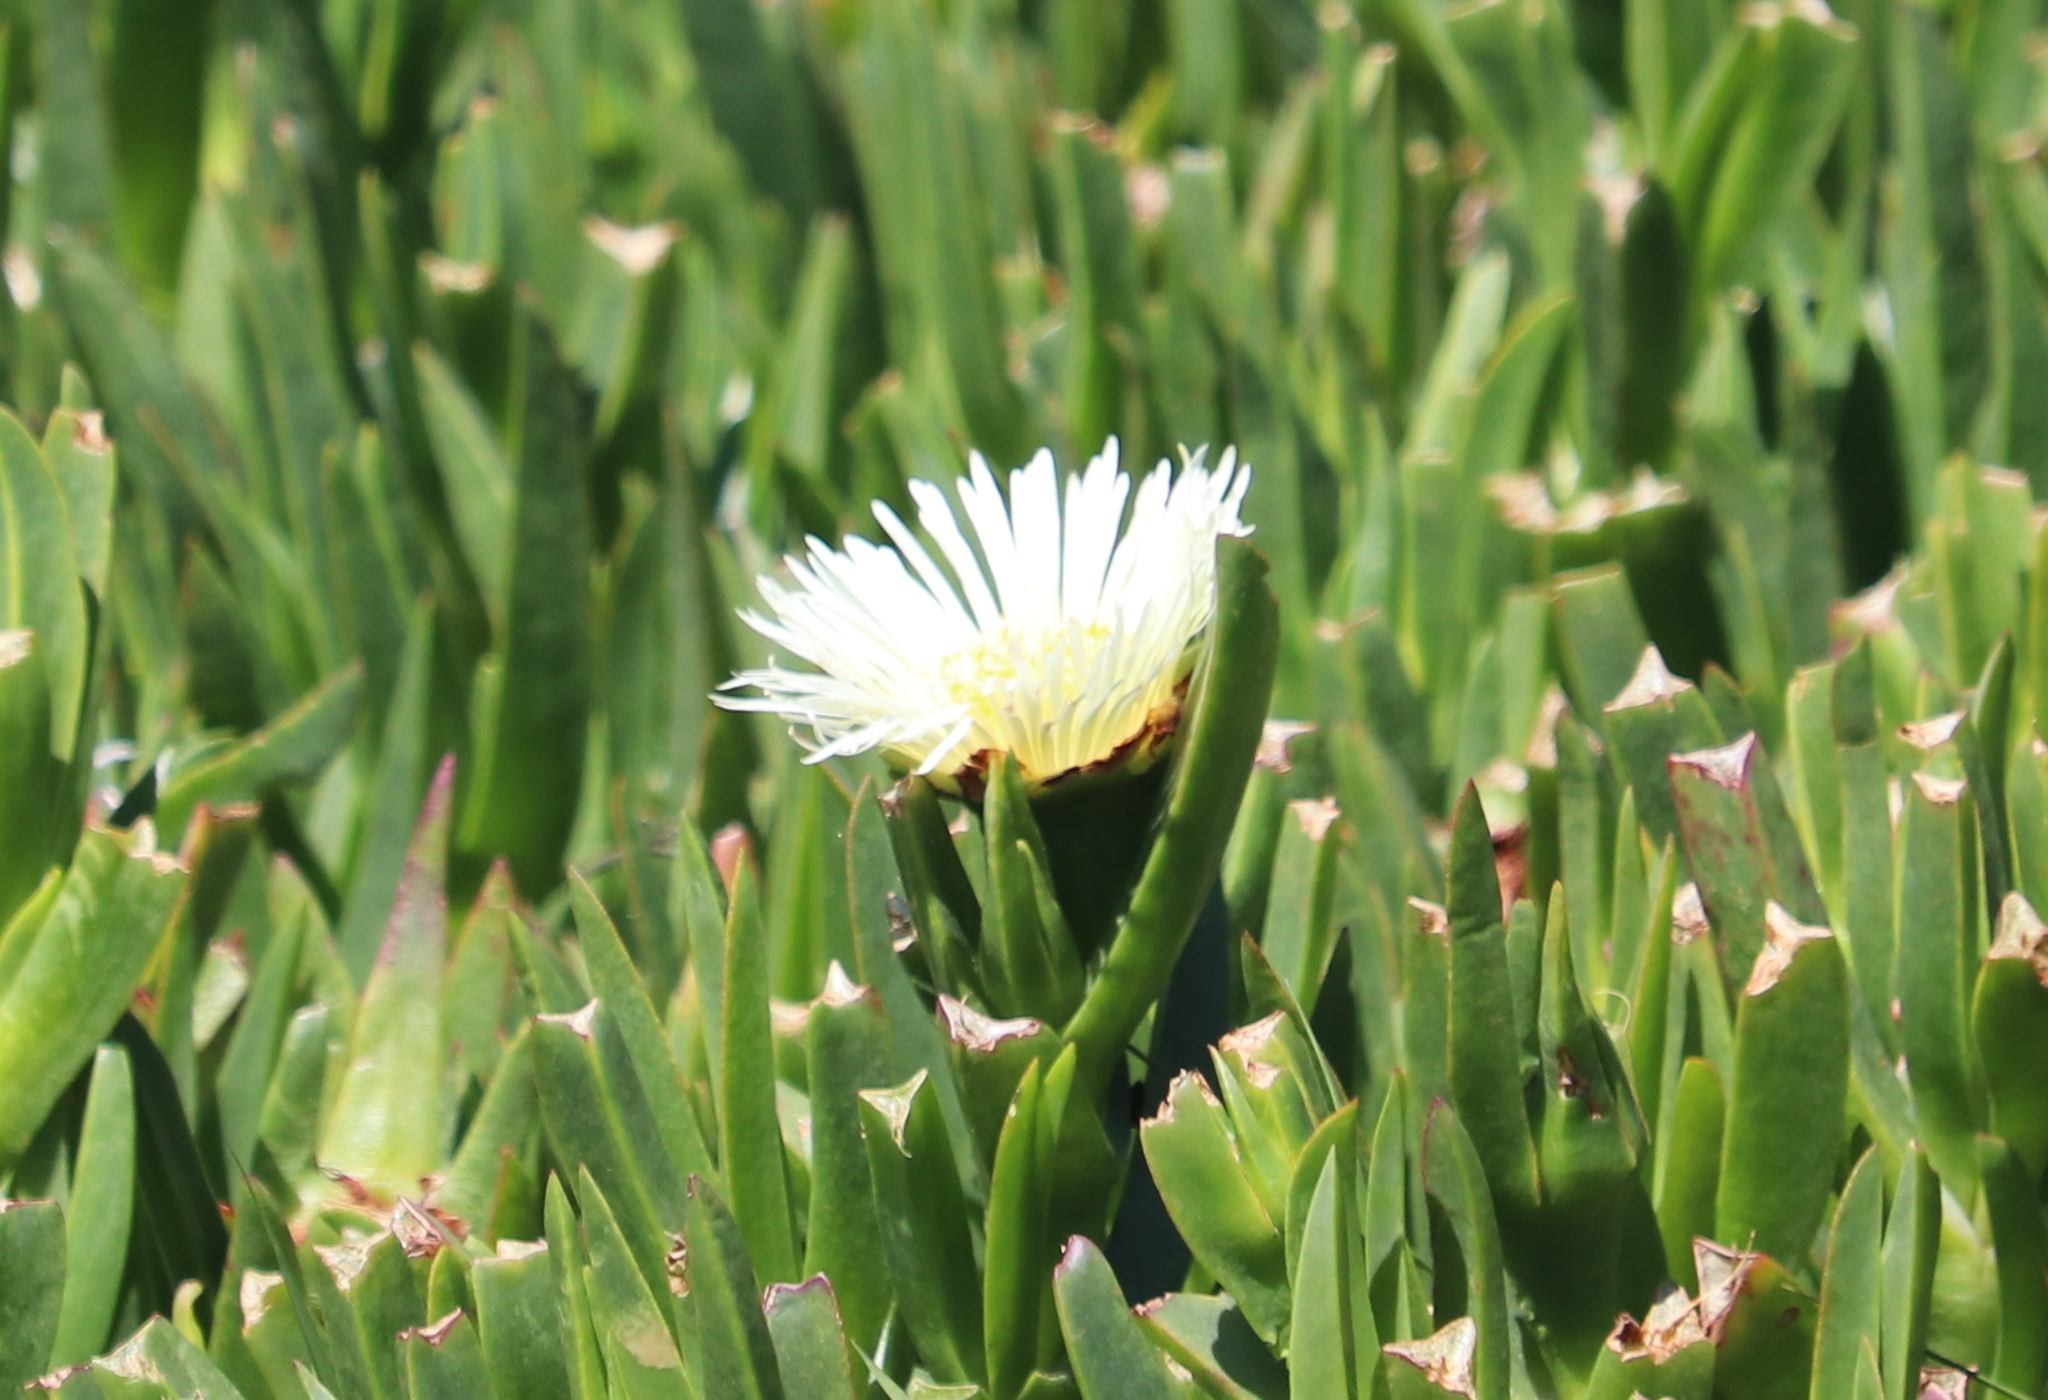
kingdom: Plantae
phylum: Tracheophyta
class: Magnoliopsida
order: Caryophyllales
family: Aizoaceae
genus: Carpobrotus
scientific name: Carpobrotus edulis
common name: Hottentot-fig
